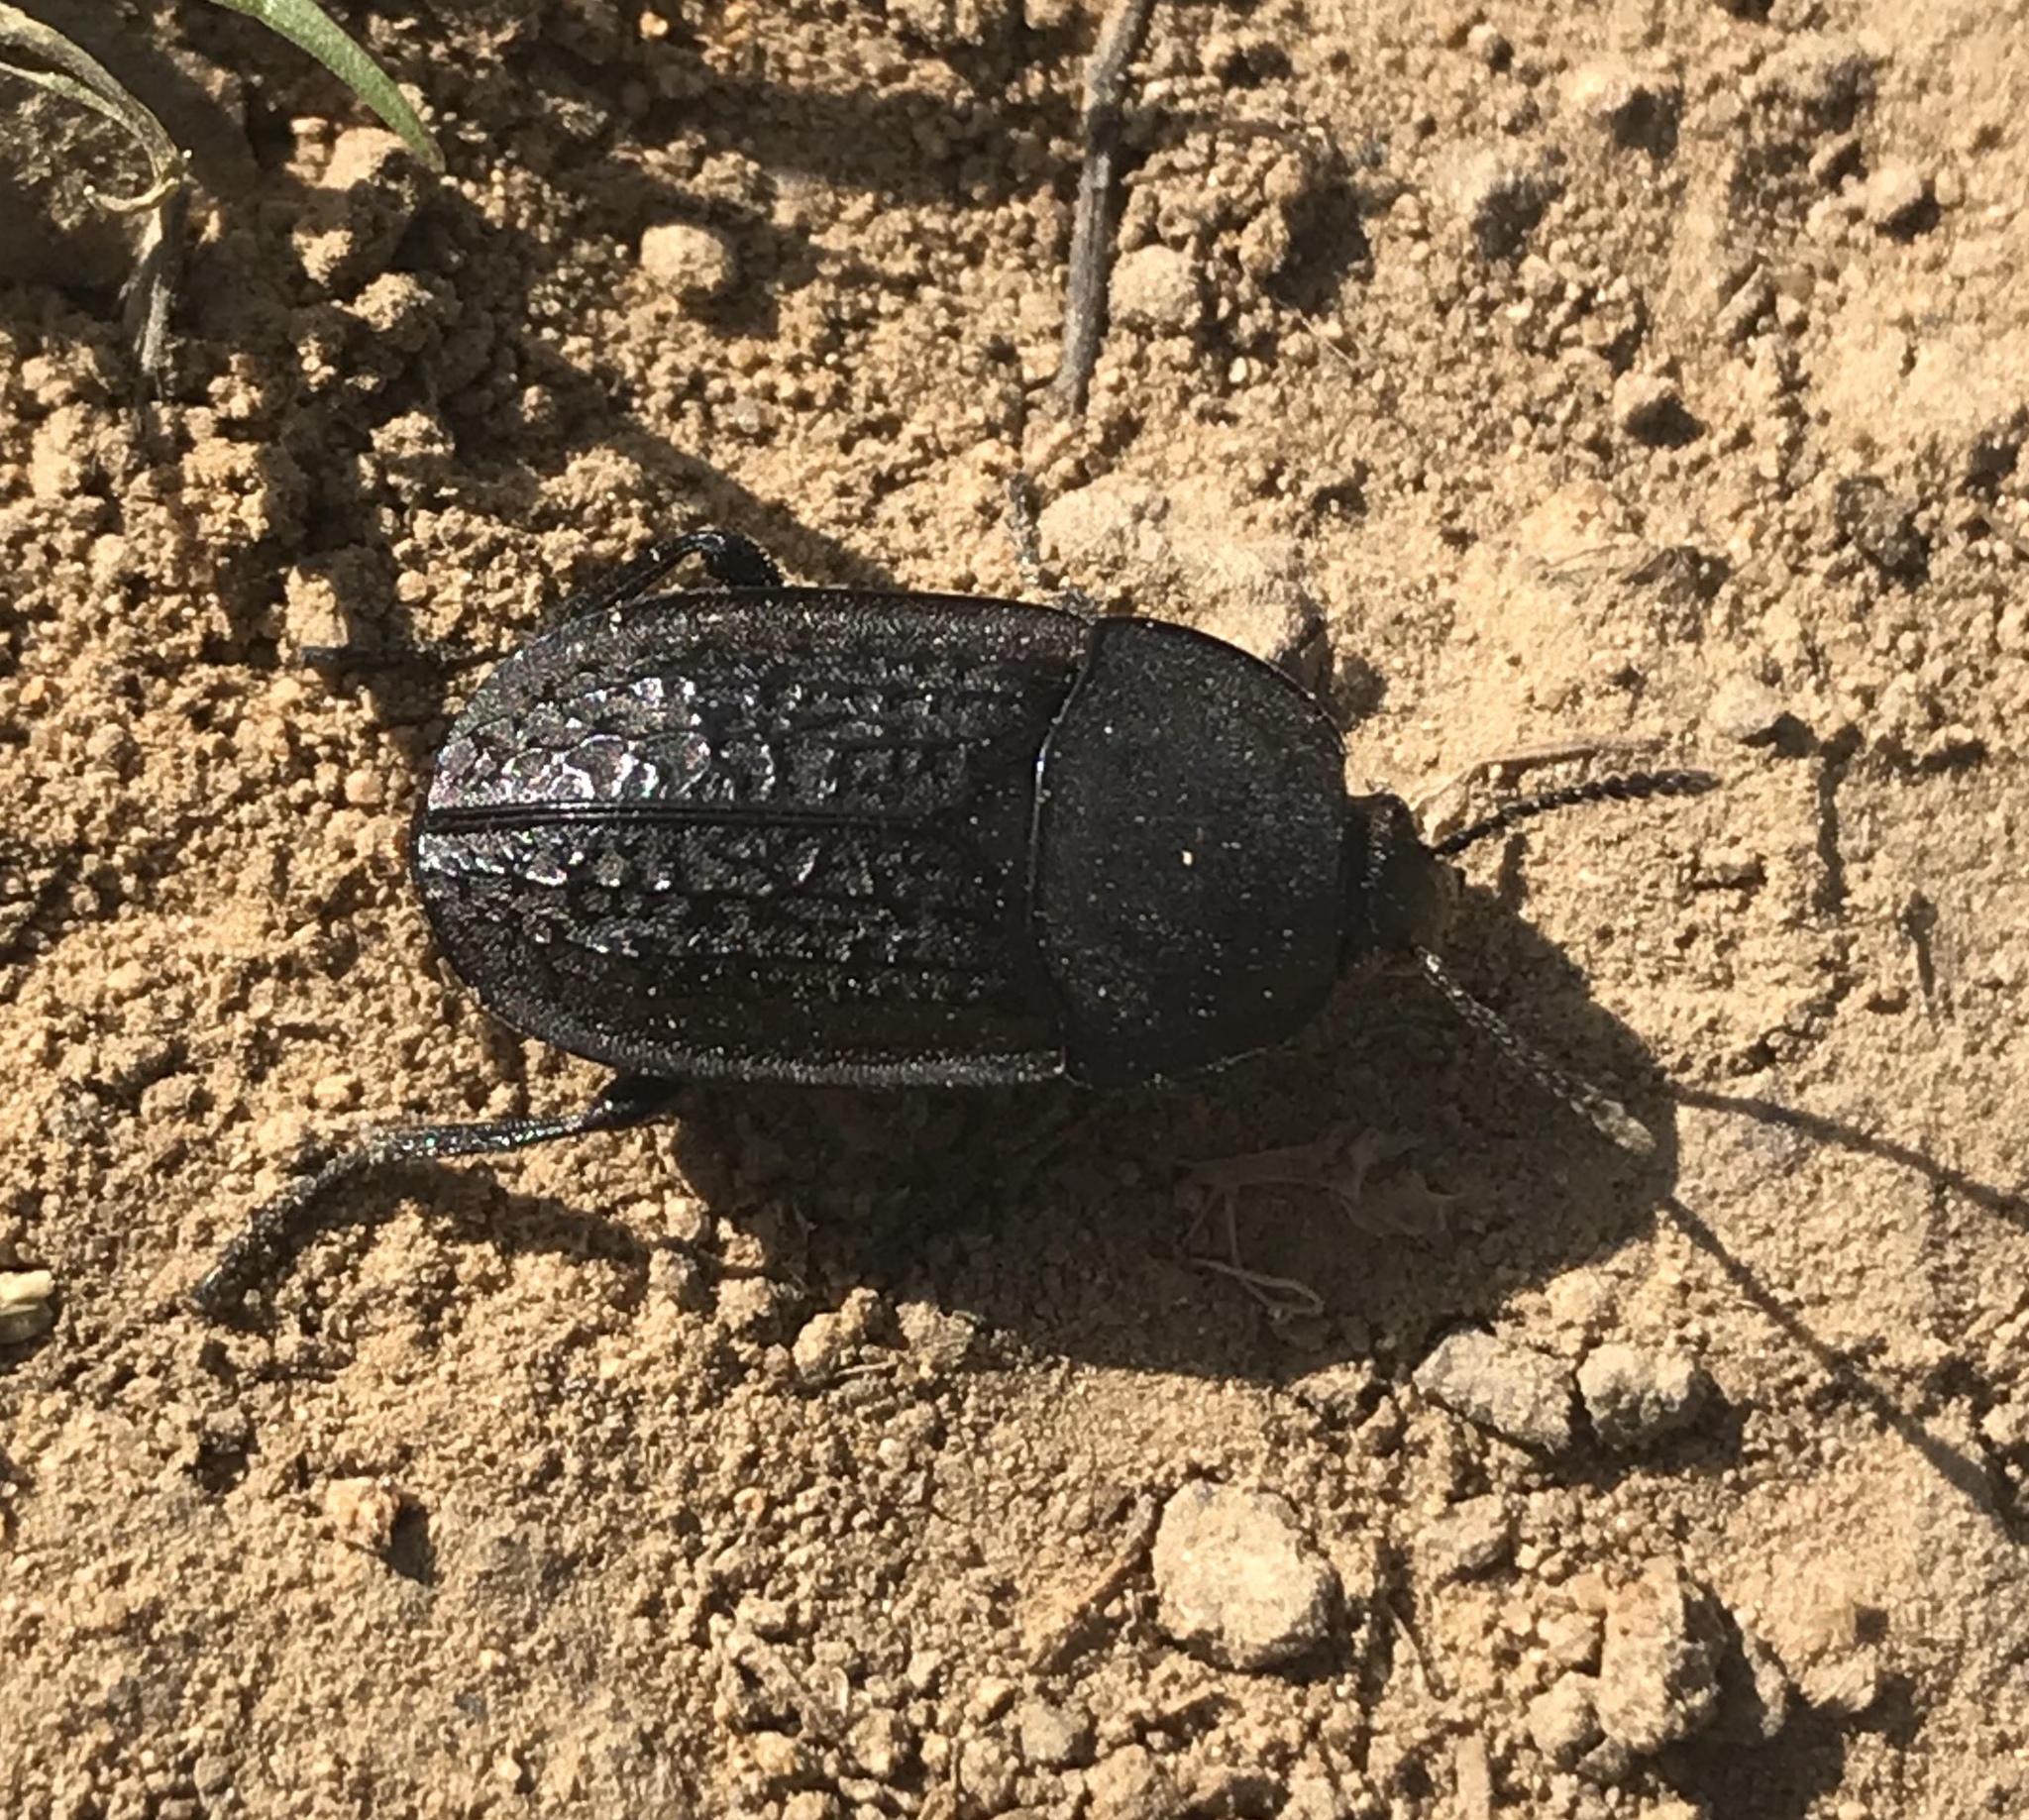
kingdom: Animalia
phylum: Arthropoda
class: Insecta
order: Coleoptera
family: Staphylinidae
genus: Heterosilpha
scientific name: Heterosilpha ramosa
